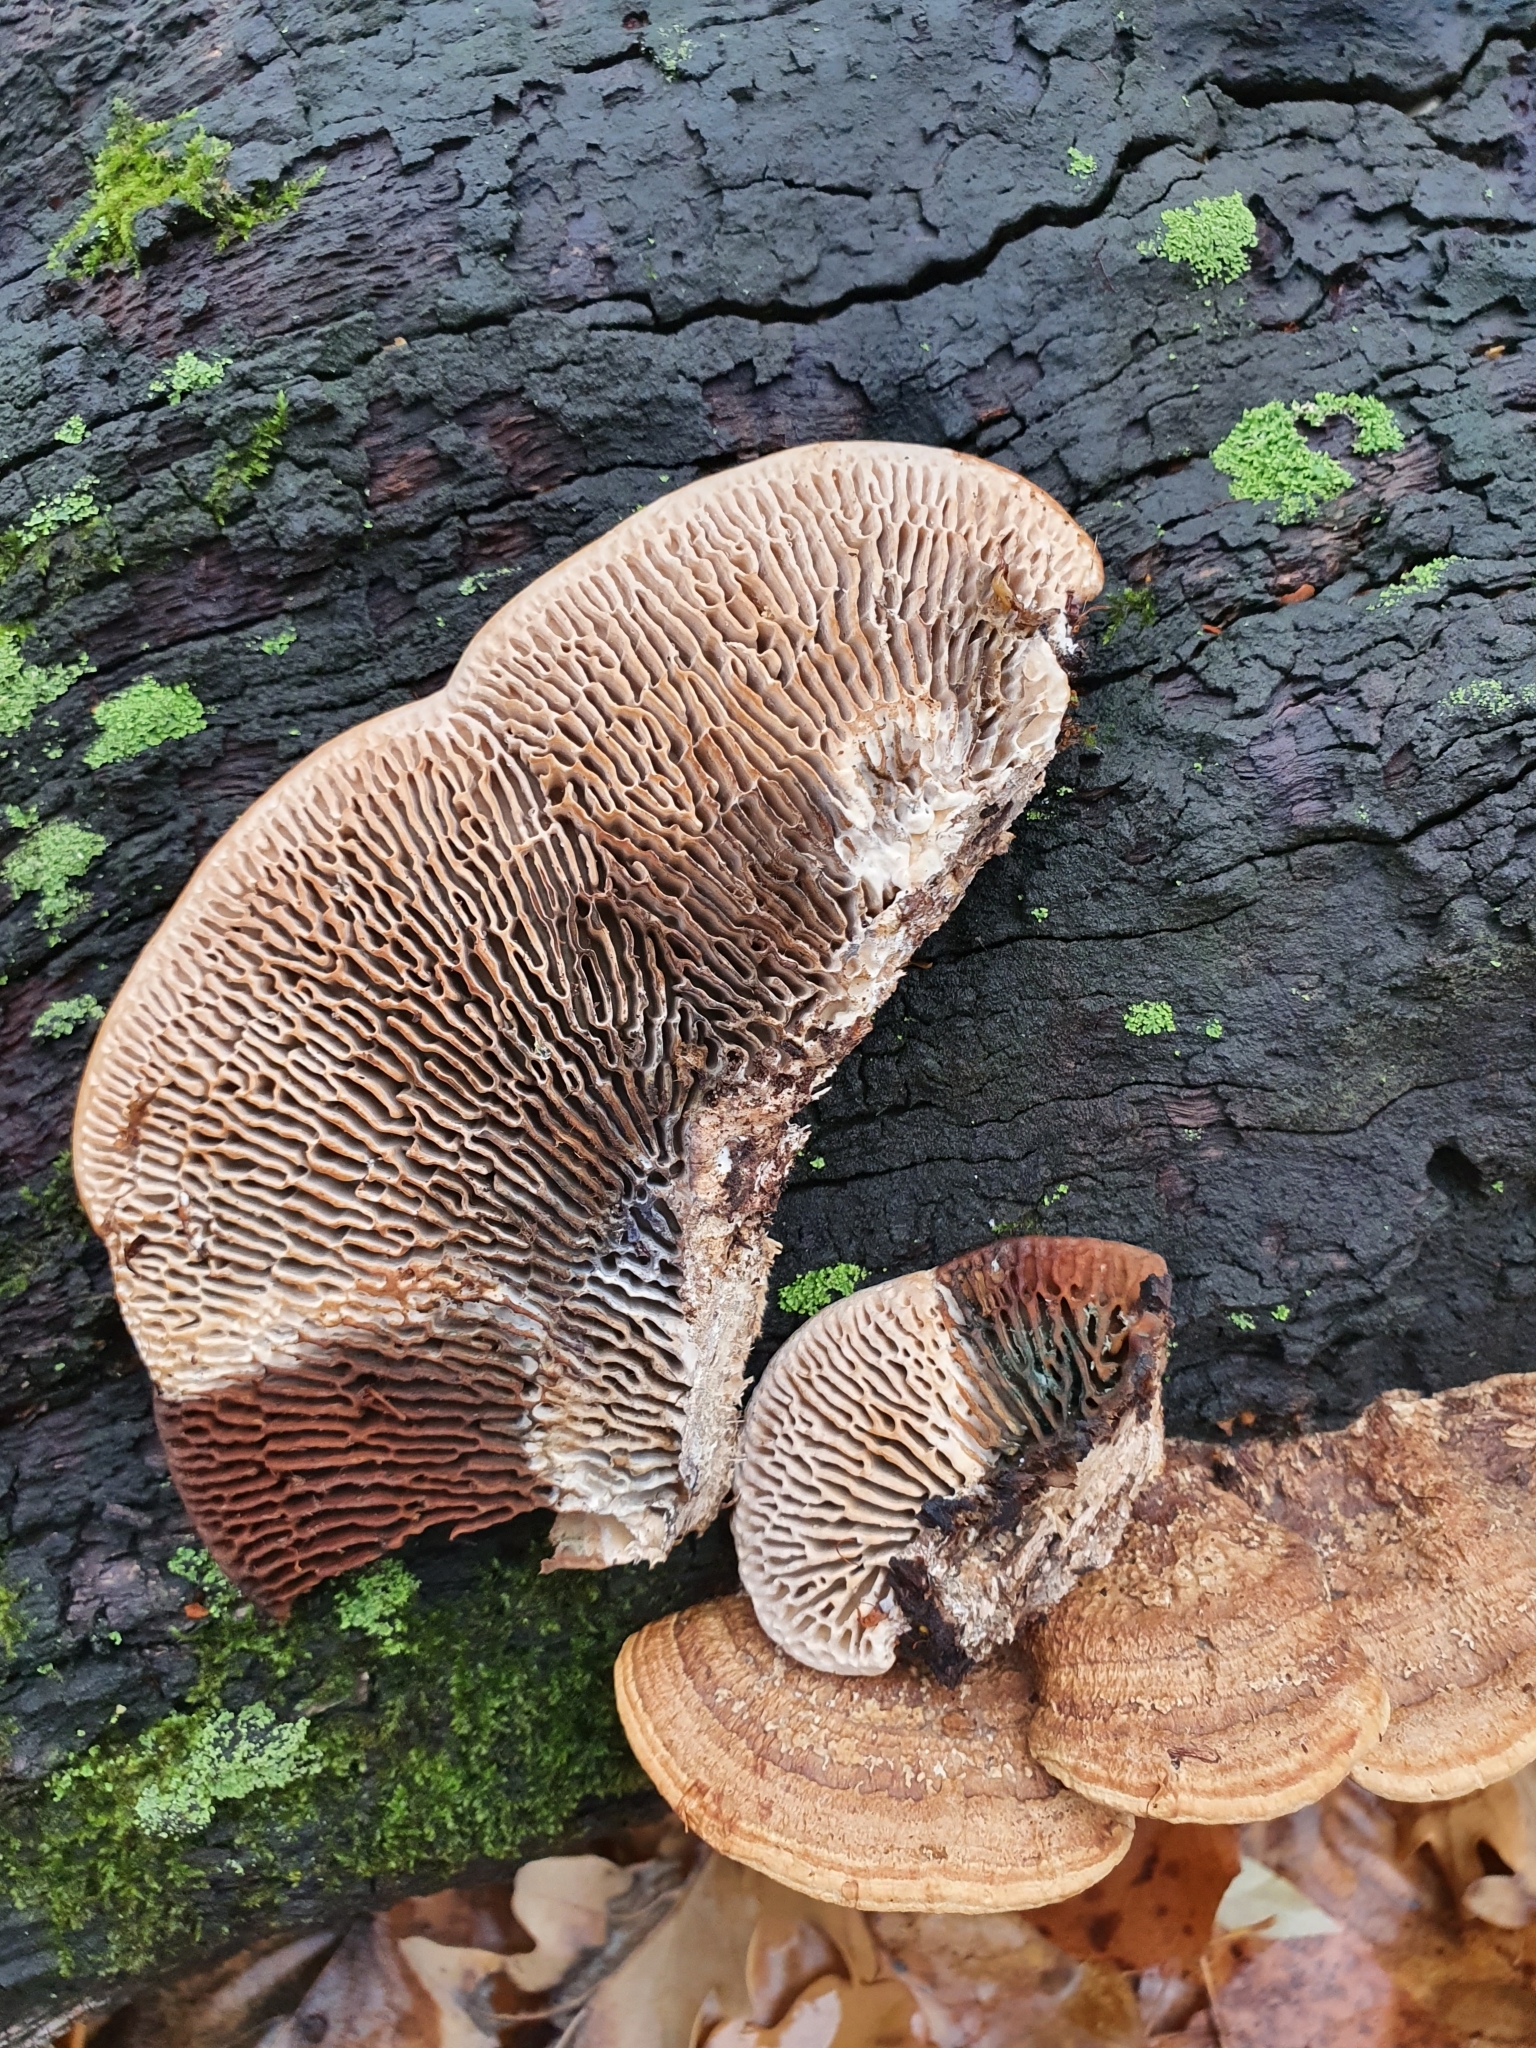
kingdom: Fungi
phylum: Basidiomycota
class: Agaricomycetes
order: Polyporales
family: Fomitopsidaceae
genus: Fomitopsis
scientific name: Fomitopsis
